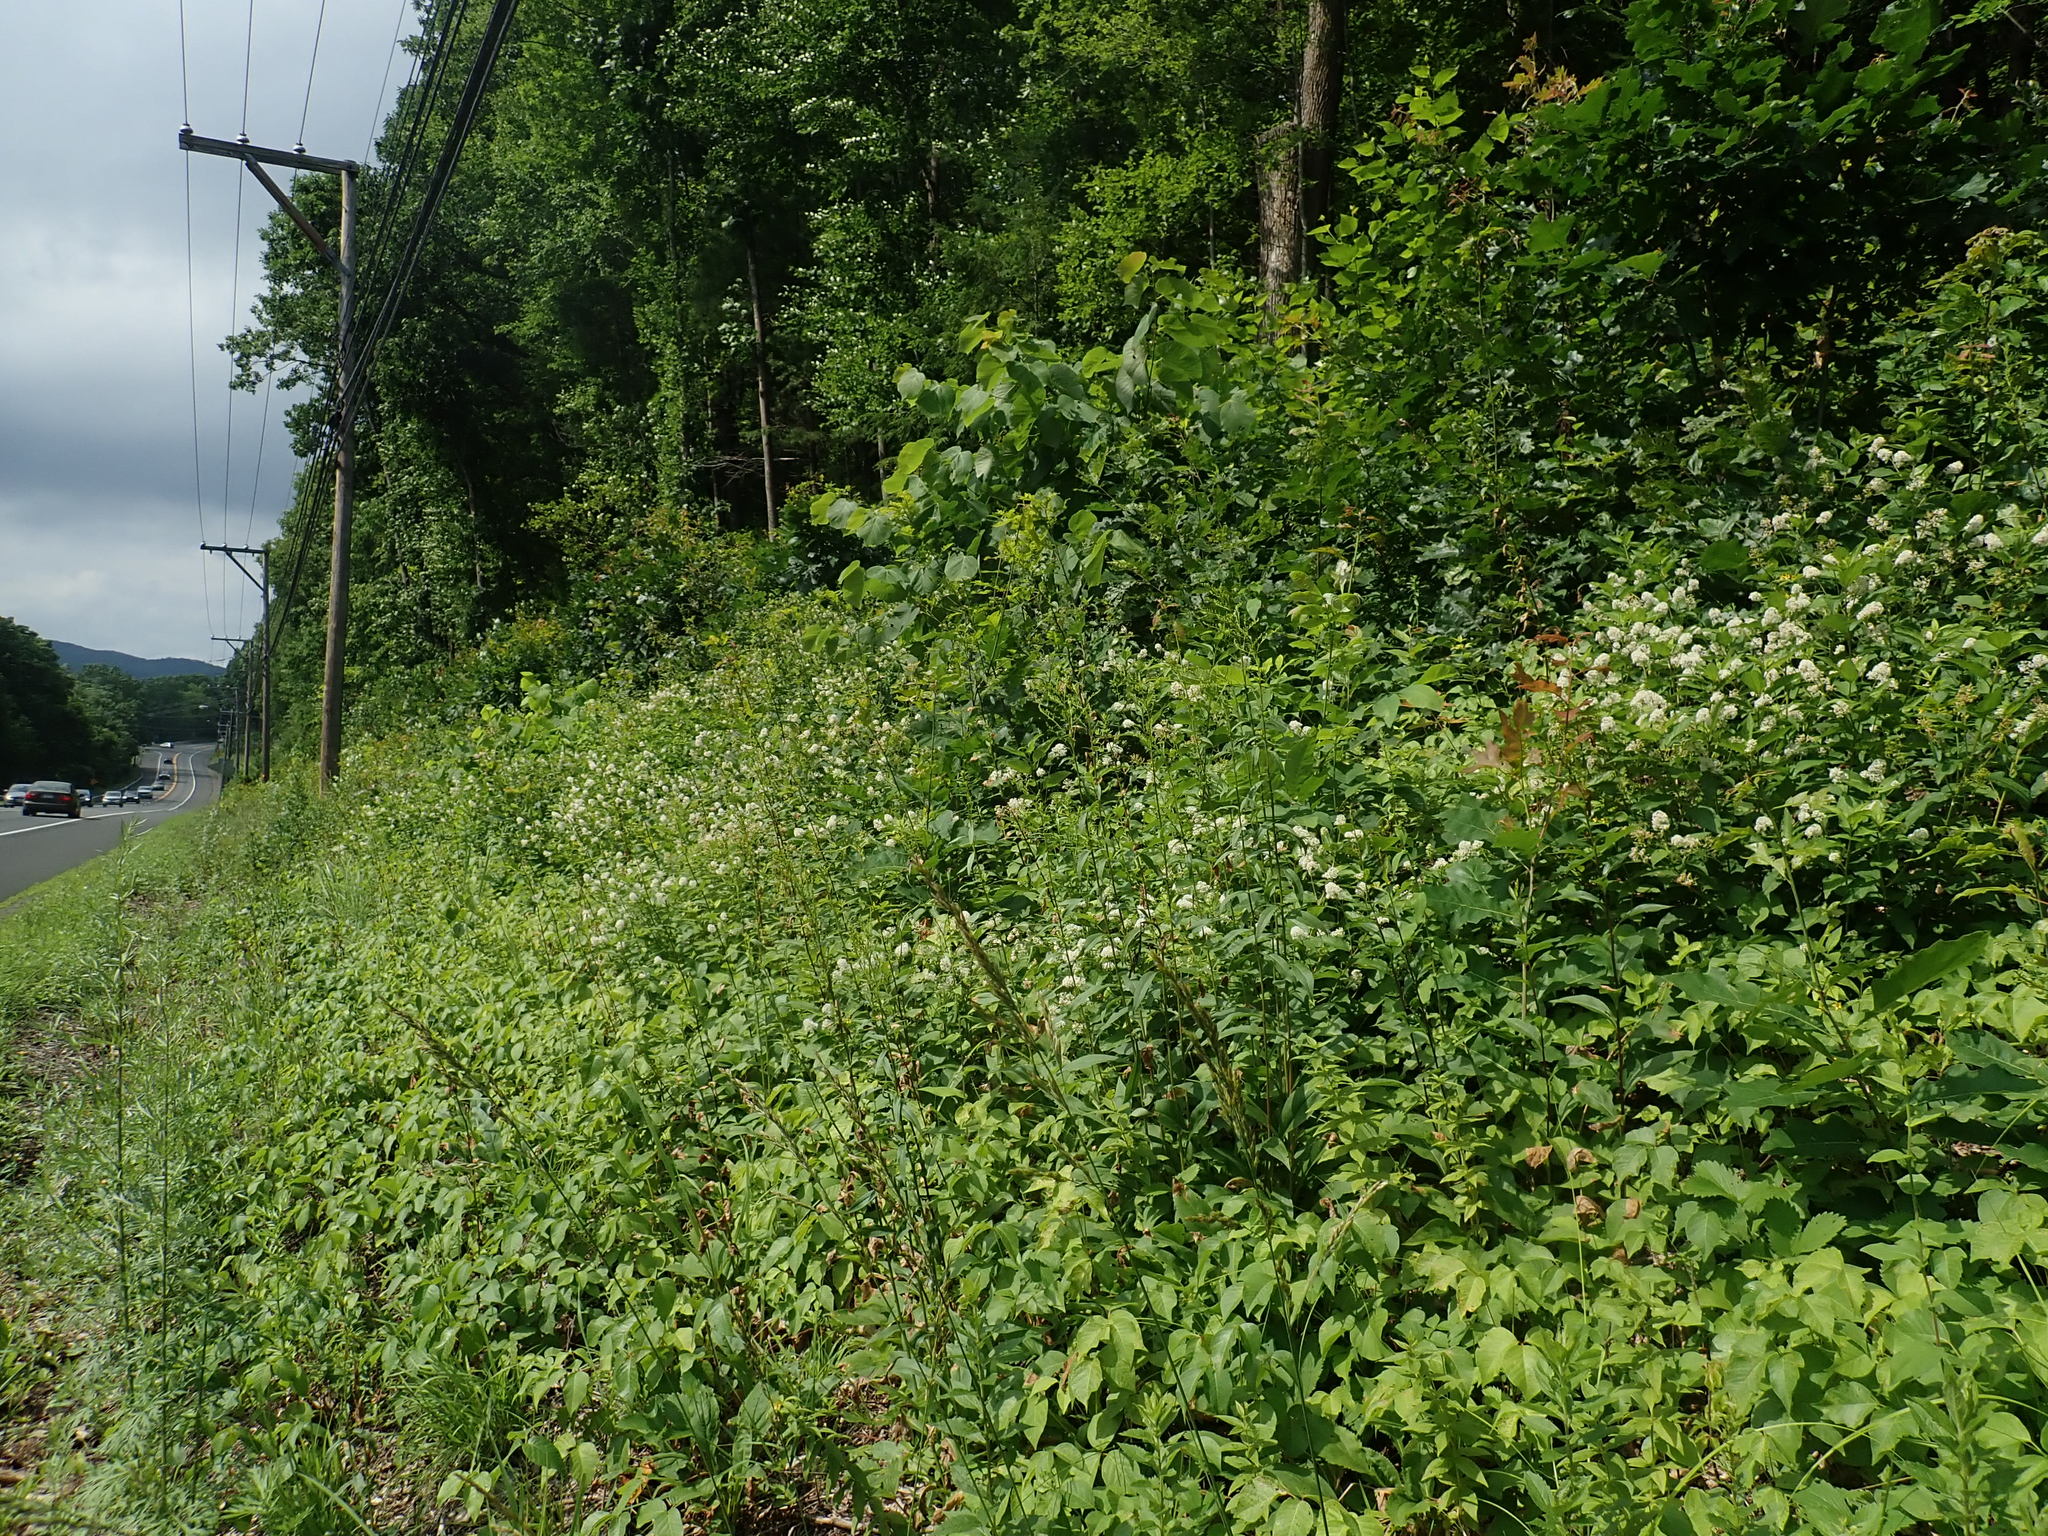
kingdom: Plantae
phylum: Tracheophyta
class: Magnoliopsida
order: Rosales
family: Rhamnaceae
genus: Ceanothus
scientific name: Ceanothus americanus
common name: Redroot
